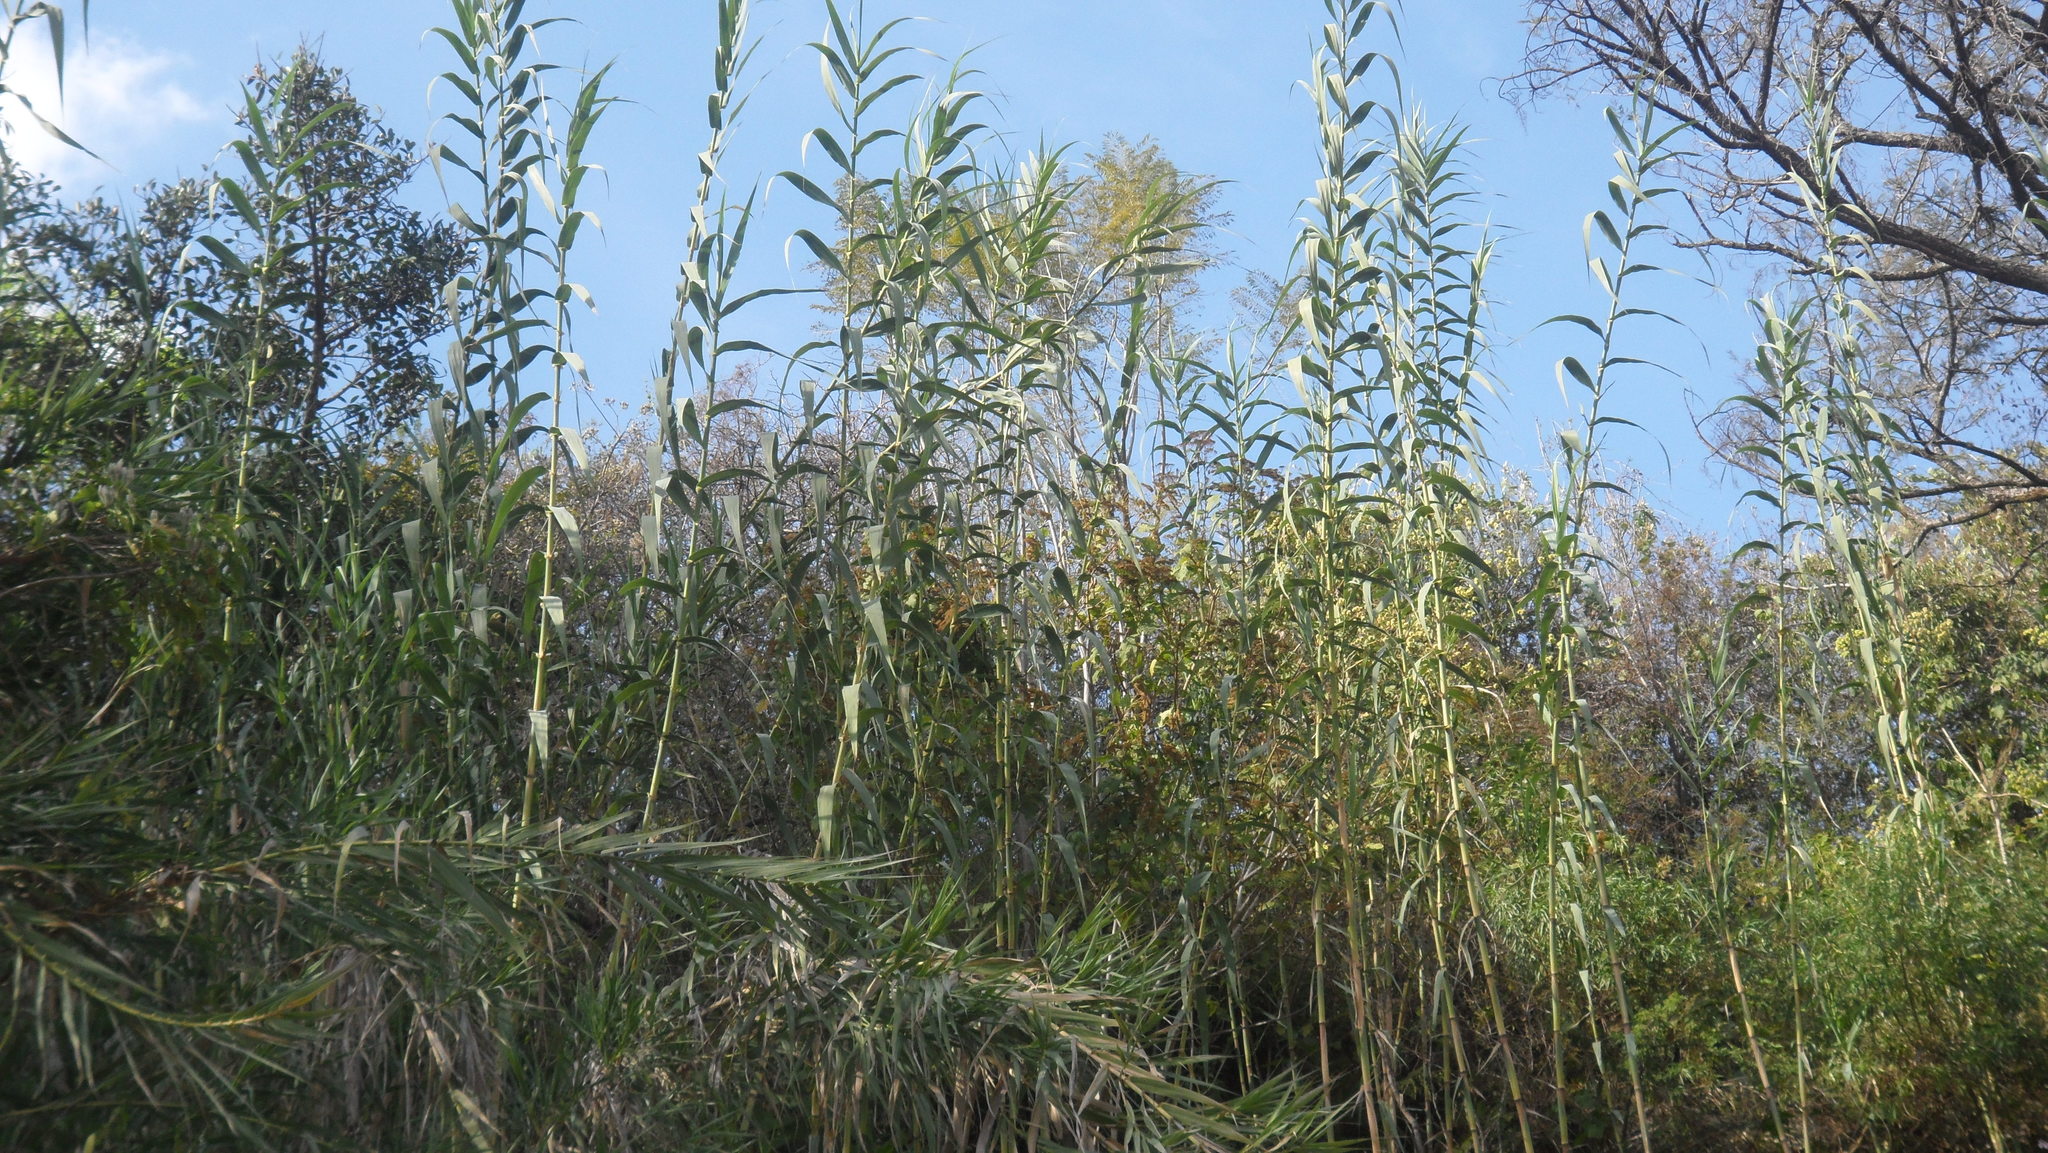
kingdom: Plantae
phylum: Tracheophyta
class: Liliopsida
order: Poales
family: Poaceae
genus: Arundo
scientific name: Arundo donax
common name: Giant reed
